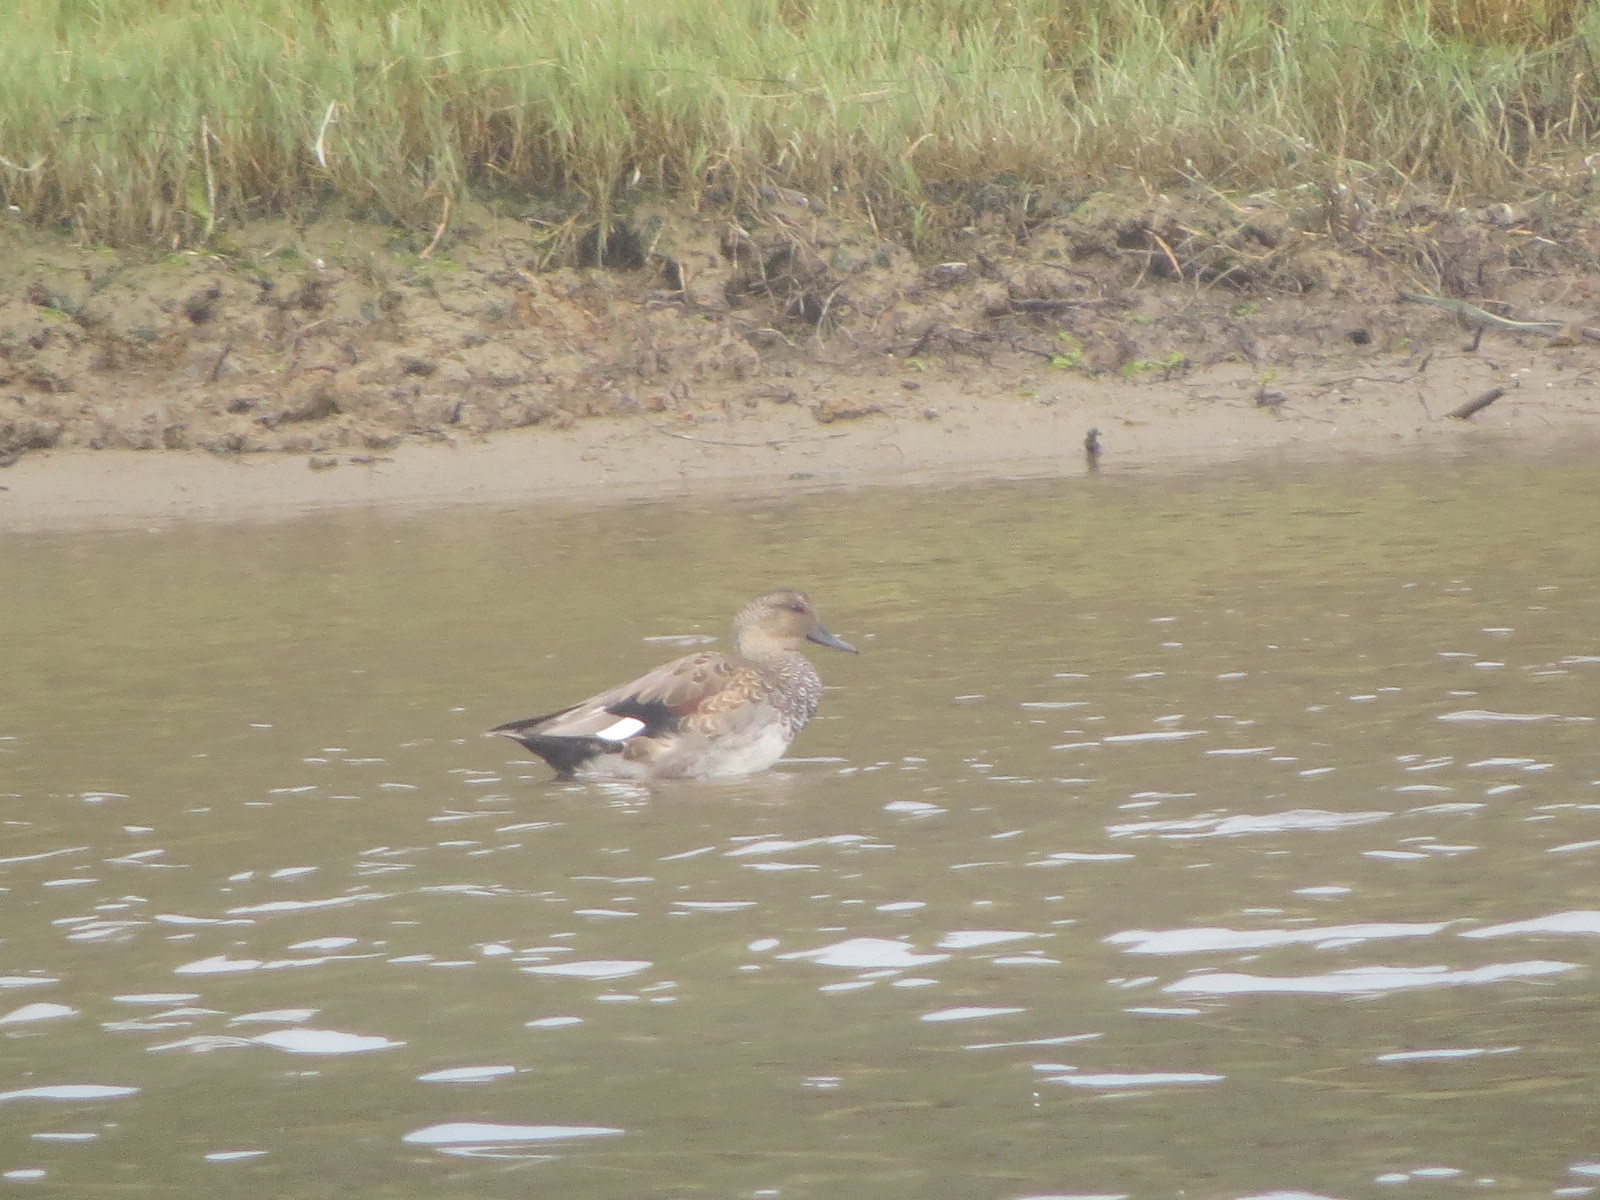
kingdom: Animalia
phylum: Chordata
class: Aves
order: Anseriformes
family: Anatidae
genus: Mareca
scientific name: Mareca strepera
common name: Gadwall
